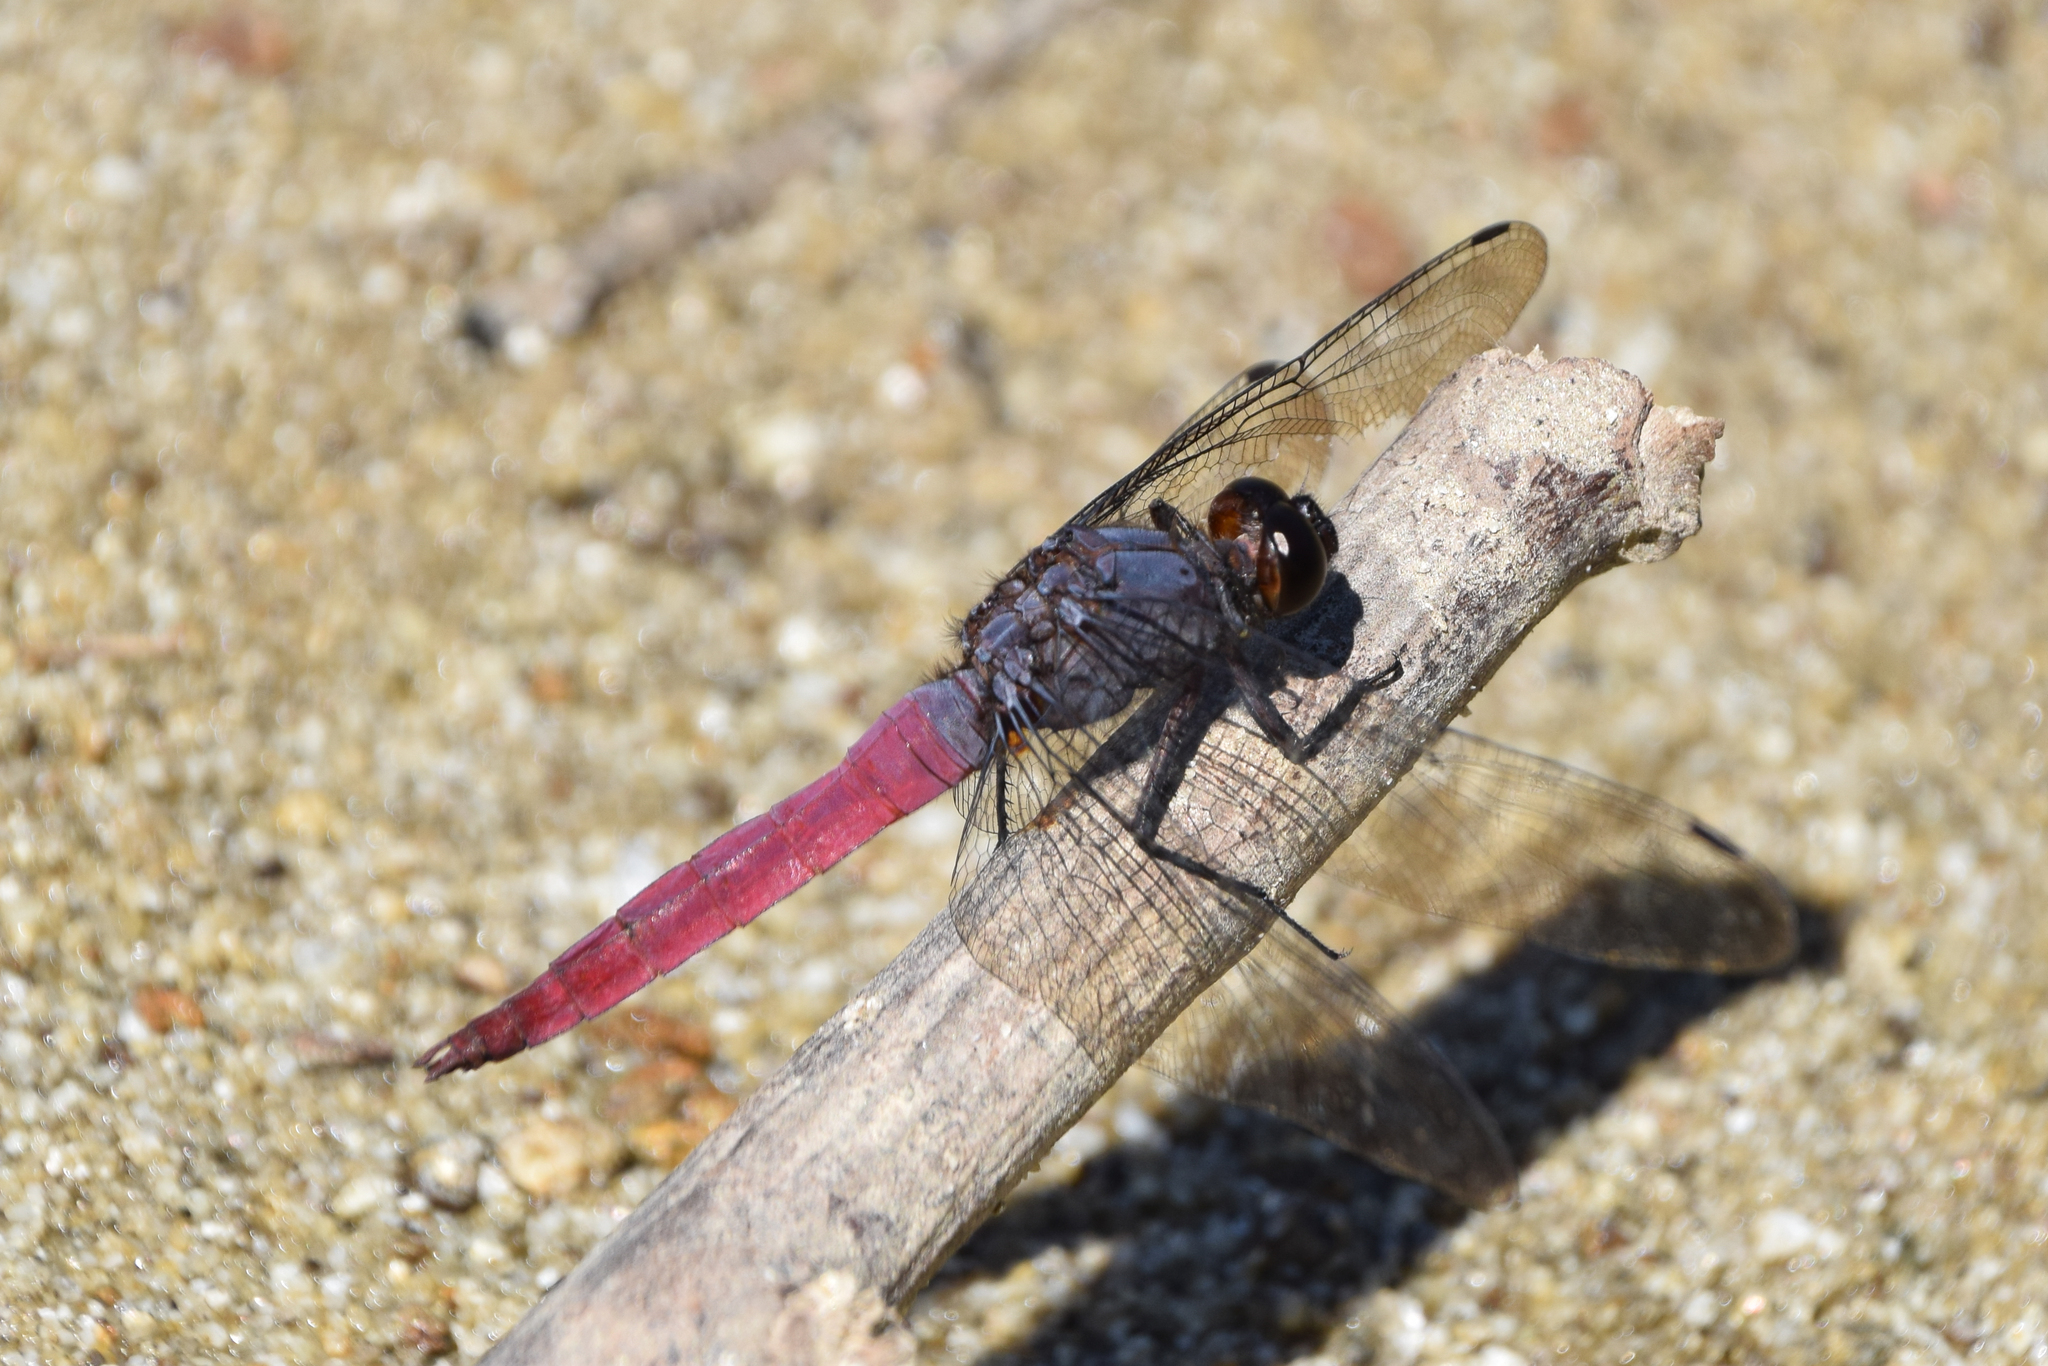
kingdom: Animalia
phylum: Arthropoda
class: Insecta
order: Odonata
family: Libellulidae
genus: Orthetrum
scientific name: Orthetrum pruinosum
